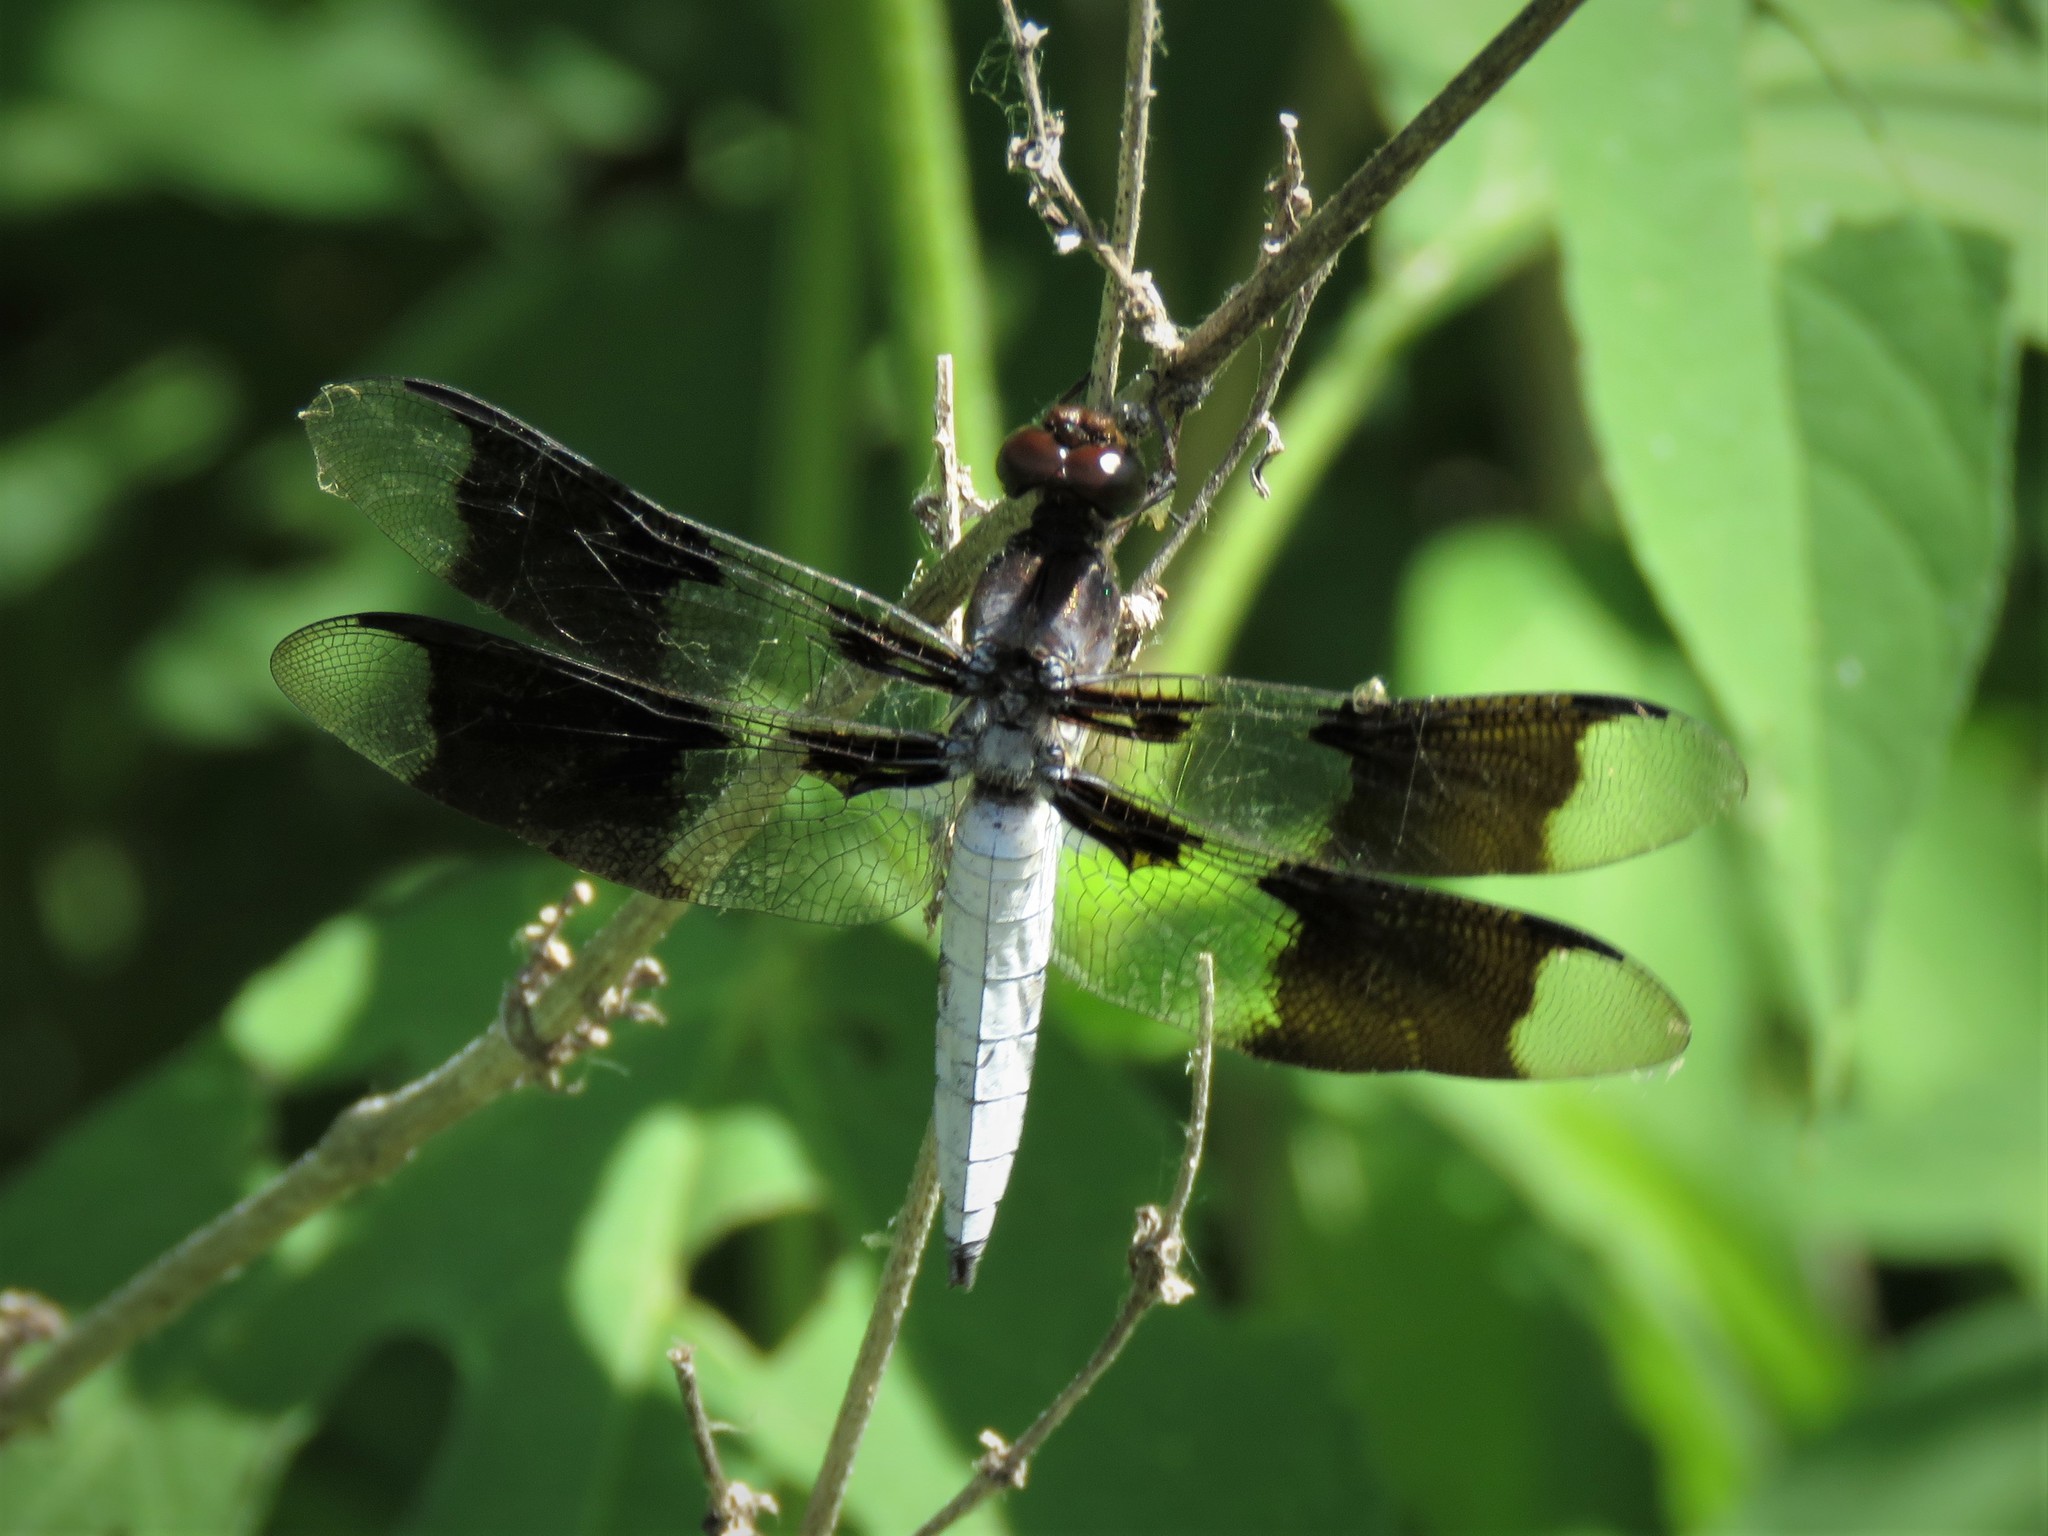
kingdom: Animalia
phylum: Arthropoda
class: Insecta
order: Odonata
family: Libellulidae
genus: Plathemis
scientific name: Plathemis lydia
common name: Common whitetail
